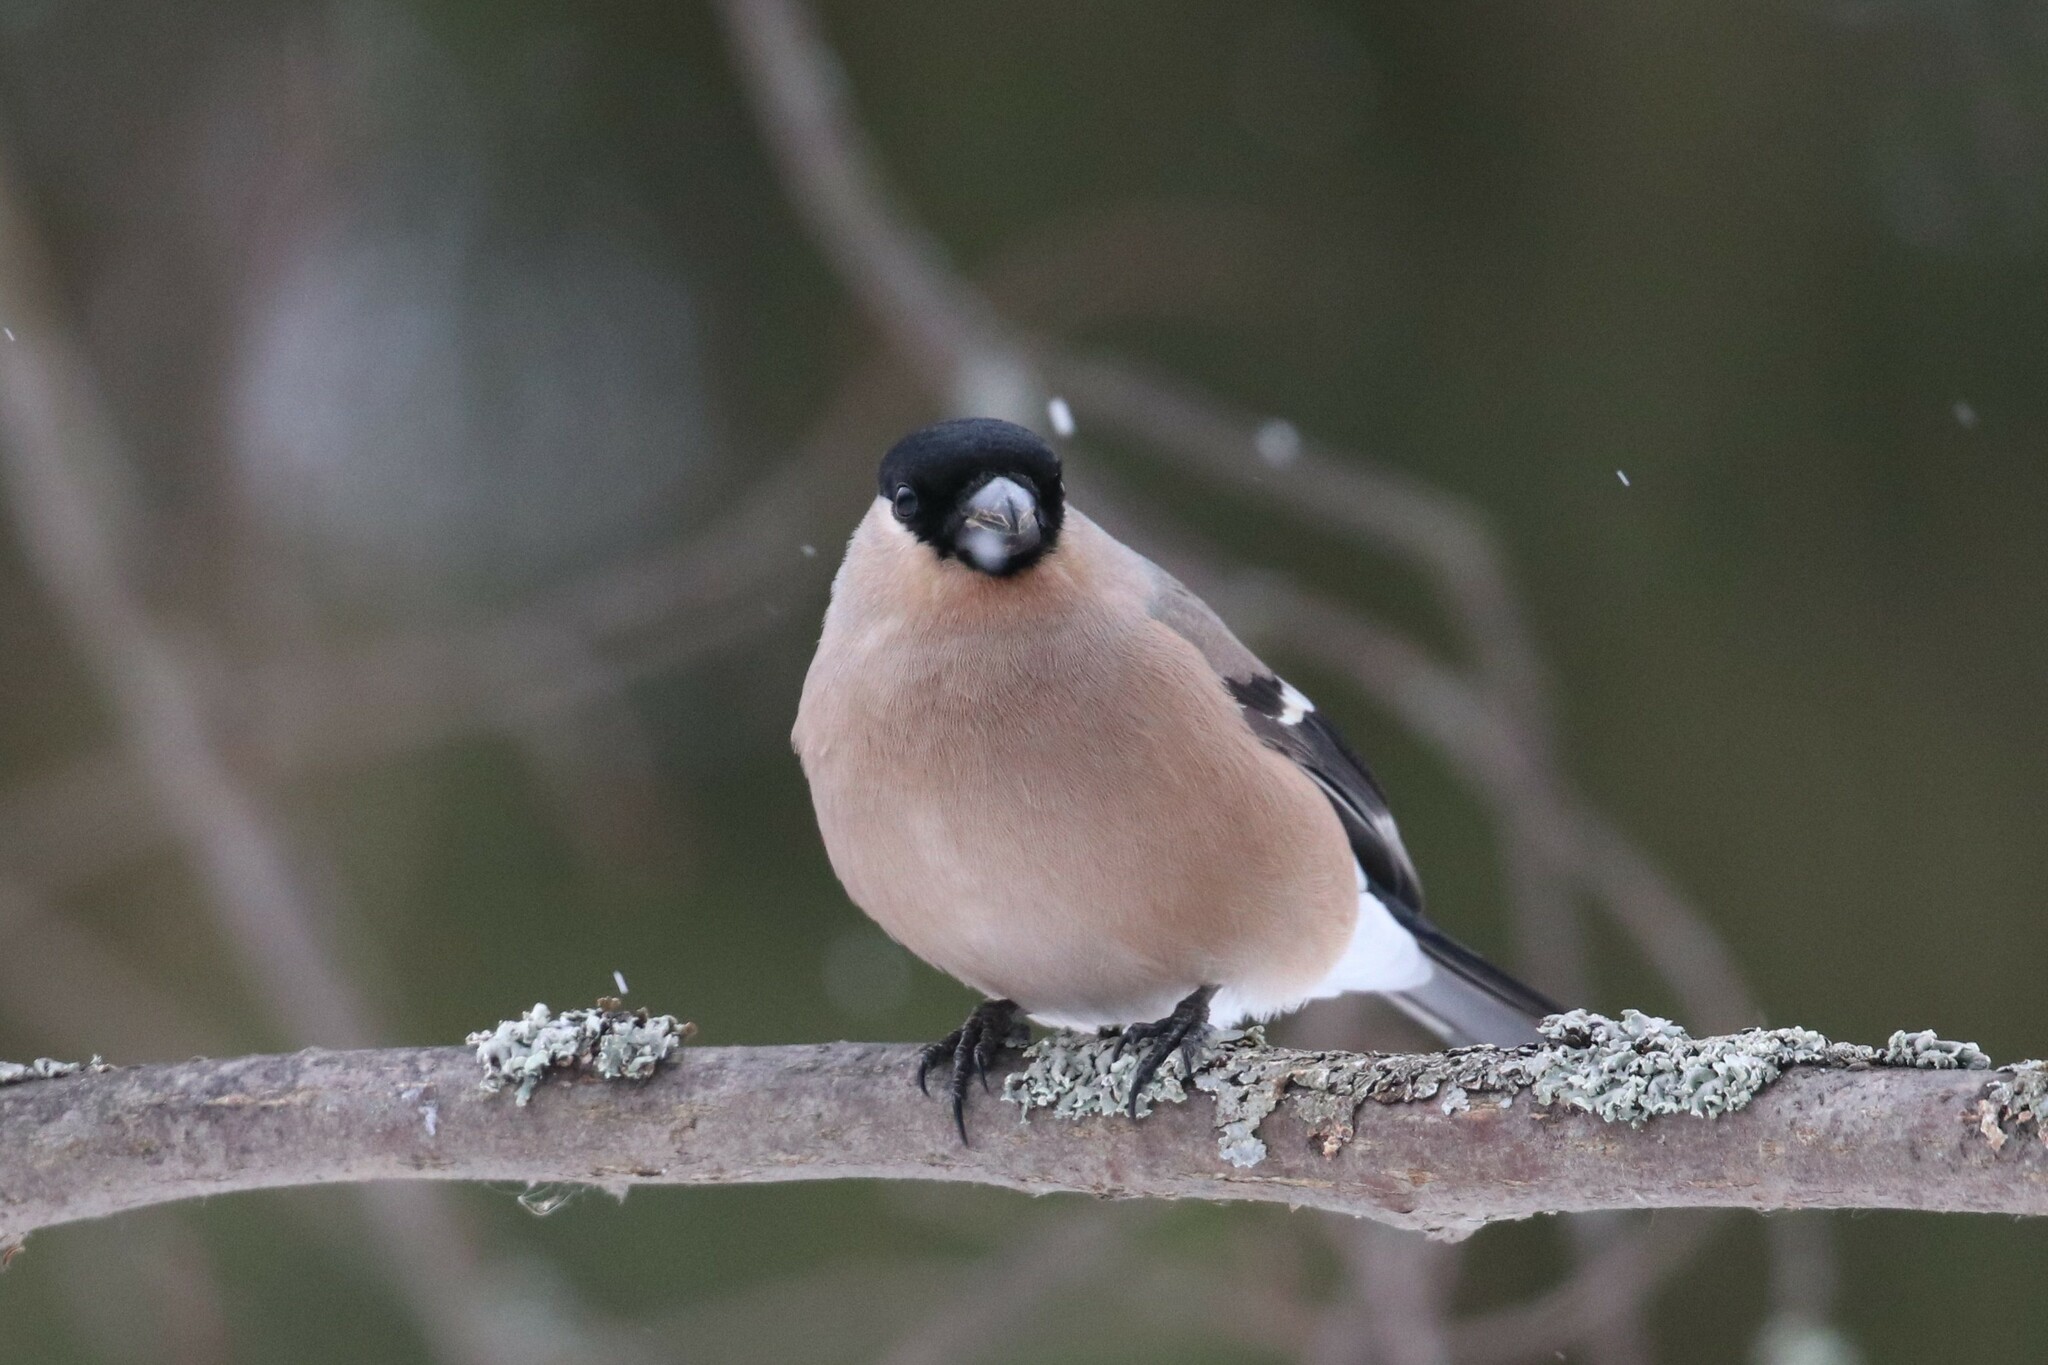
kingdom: Animalia
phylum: Chordata
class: Aves
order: Passeriformes
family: Fringillidae
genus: Pyrrhula
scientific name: Pyrrhula pyrrhula
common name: Eurasian bullfinch
